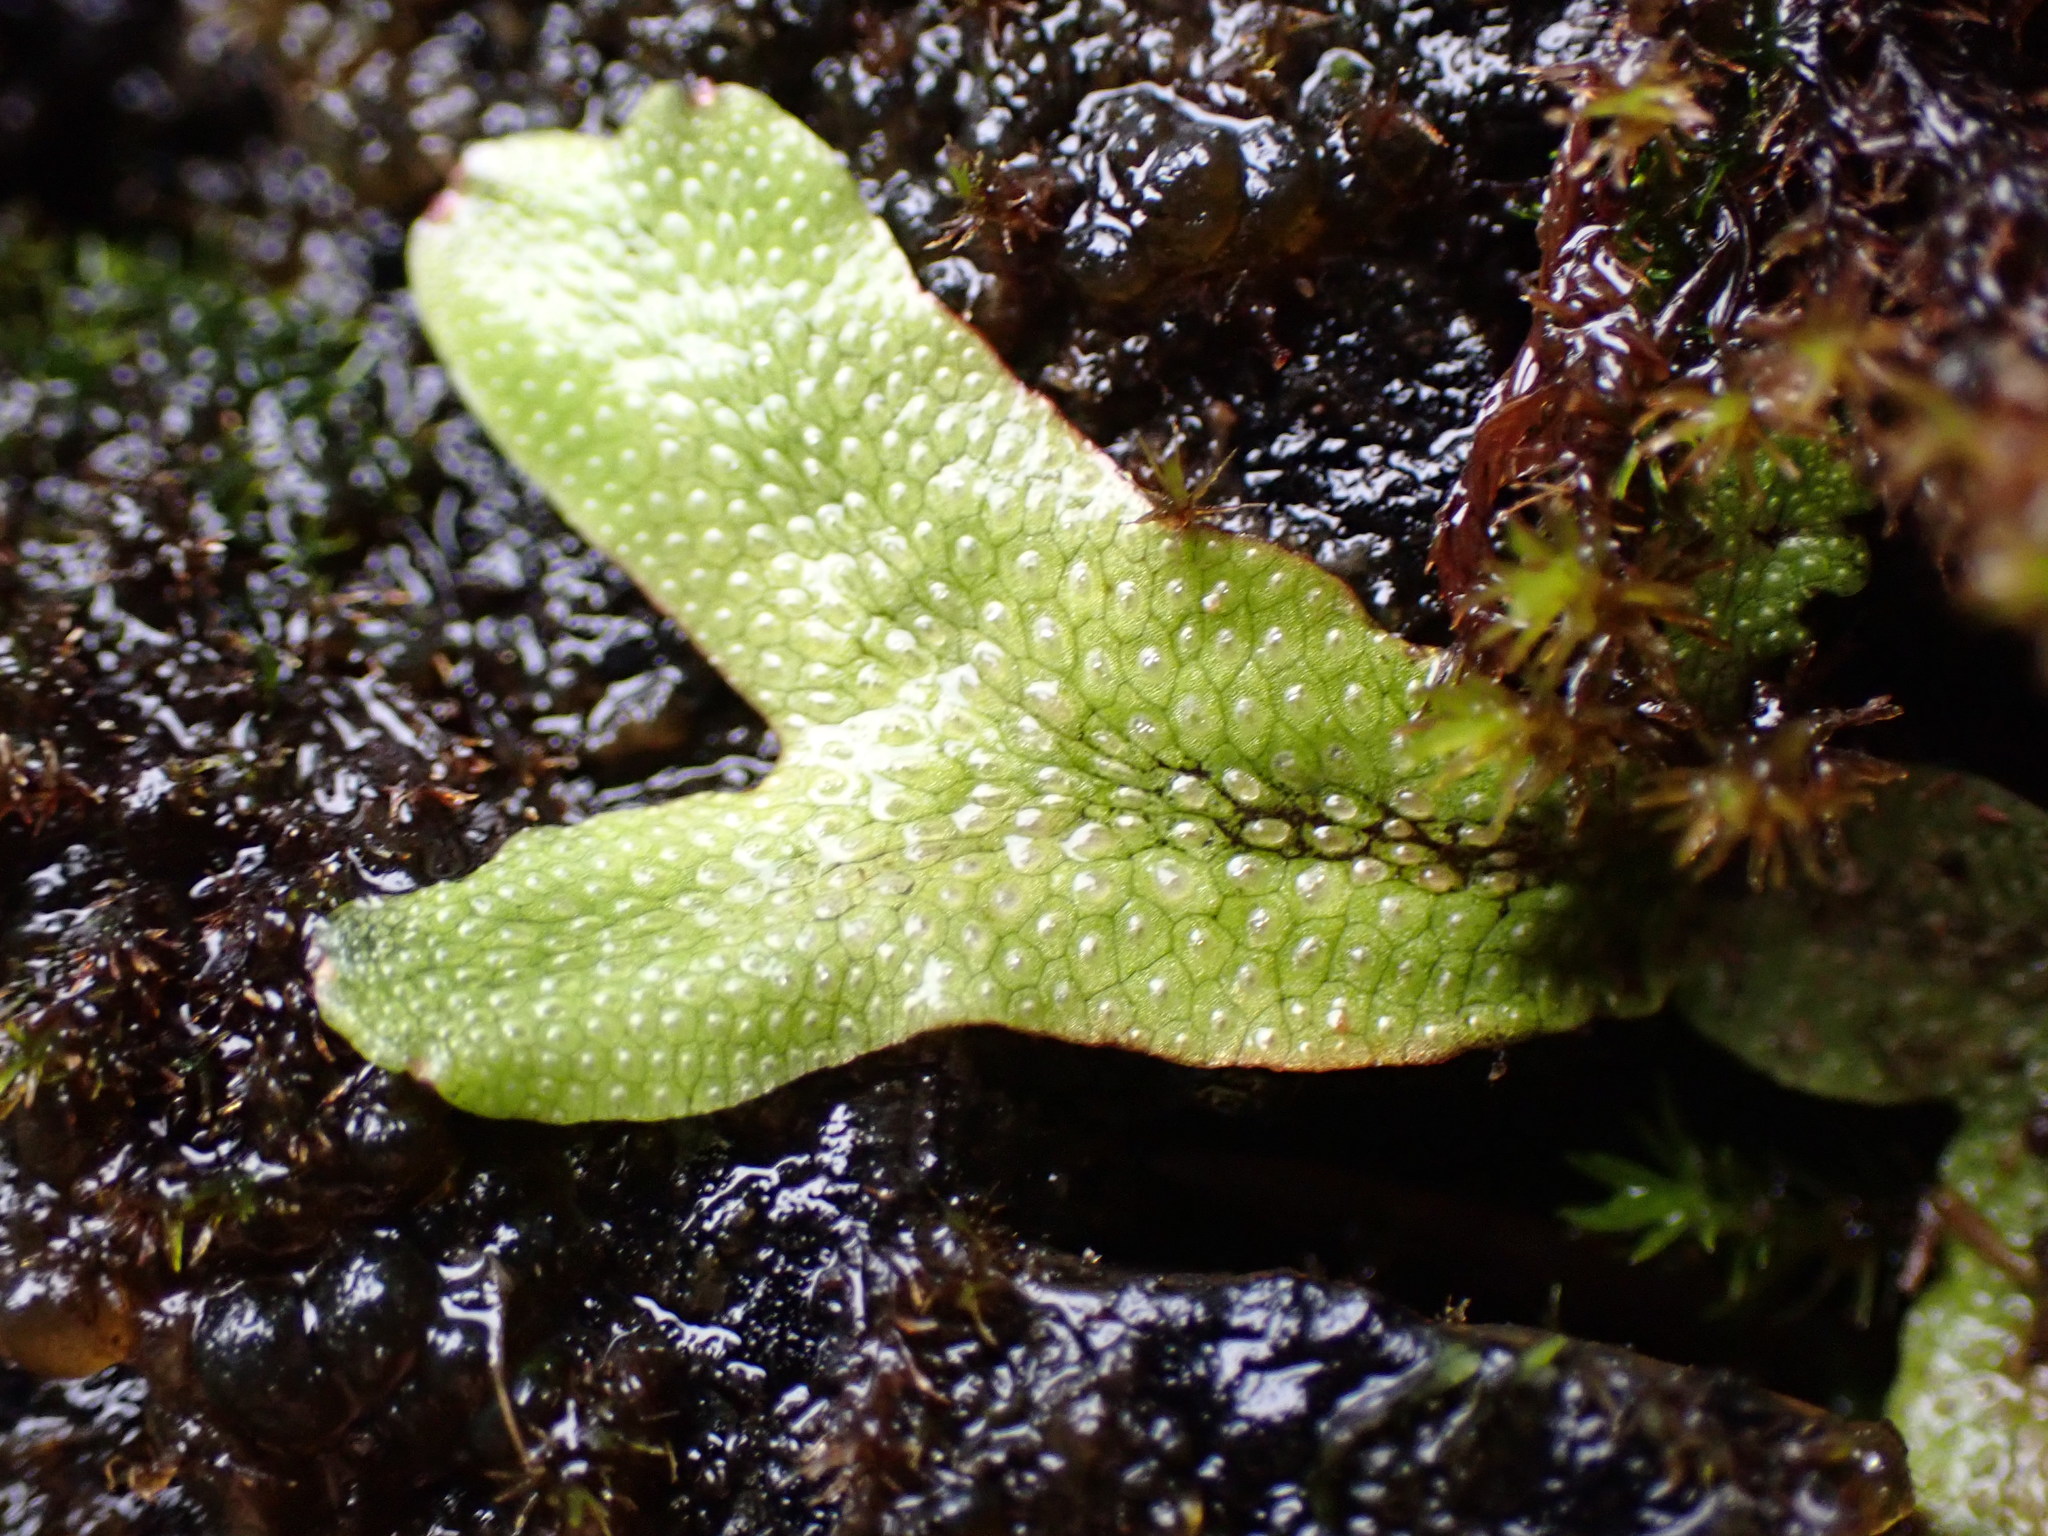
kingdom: Plantae
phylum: Marchantiophyta
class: Marchantiopsida
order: Marchantiales
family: Conocephalaceae
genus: Conocephalum
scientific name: Conocephalum salebrosum
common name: Cat-tongue liverwort
